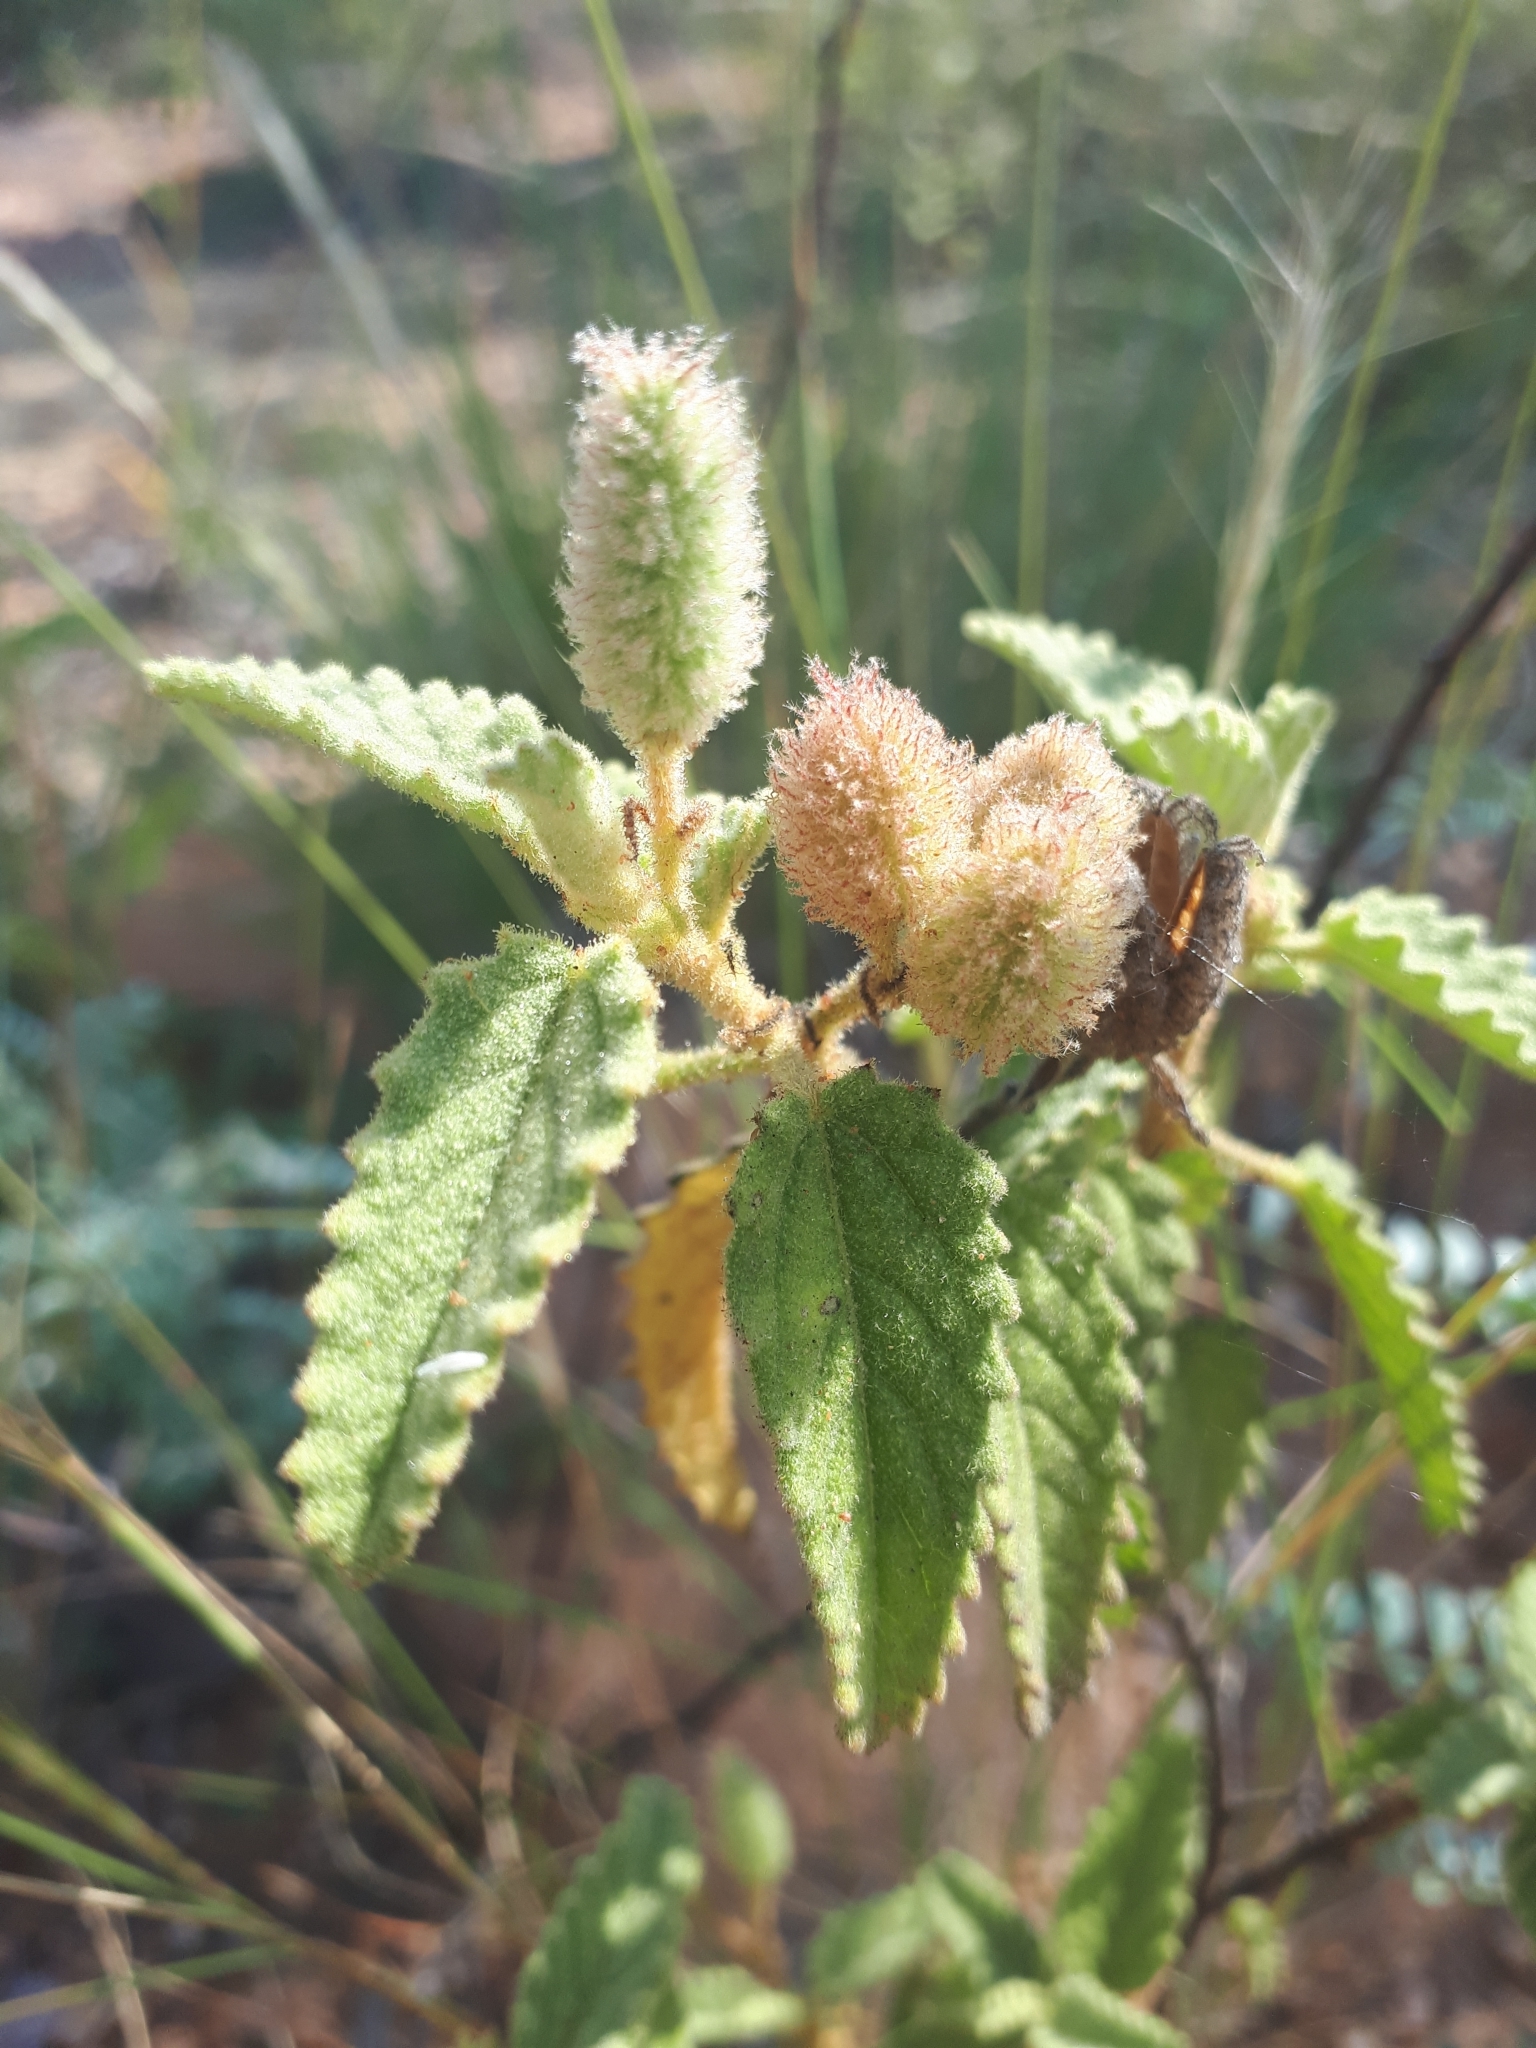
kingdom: Plantae
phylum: Tracheophyta
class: Magnoliopsida
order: Malvales
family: Malvaceae
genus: Corchorus
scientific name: Corchorus kirkii
